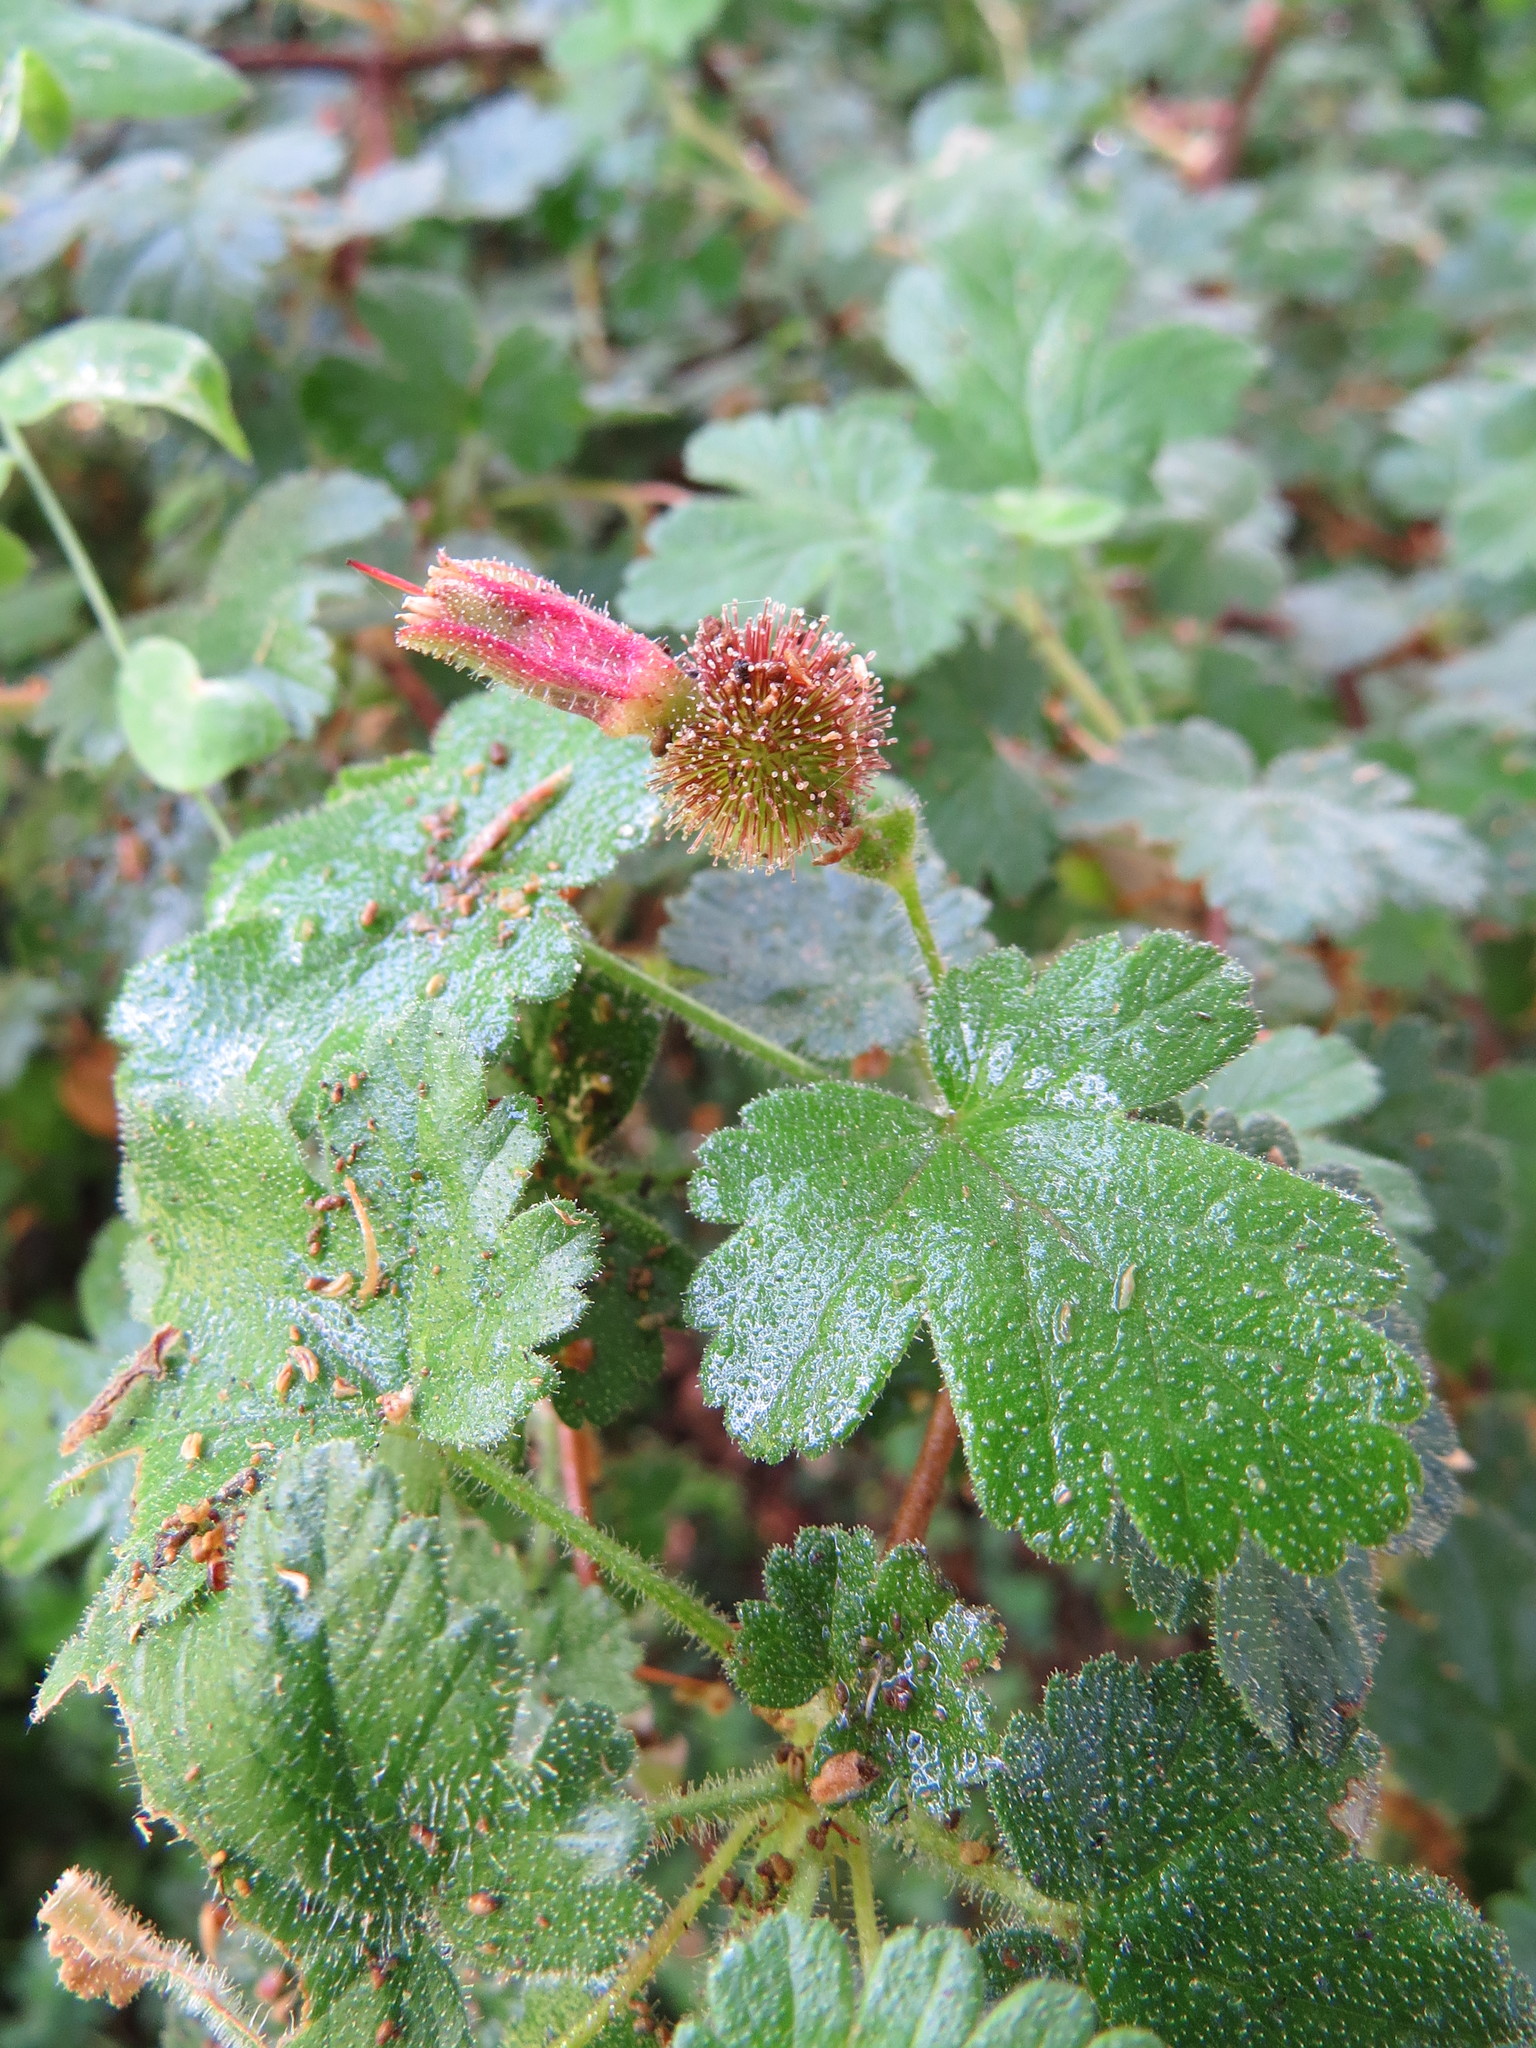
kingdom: Plantae
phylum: Tracheophyta
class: Magnoliopsida
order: Saxifragales
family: Grossulariaceae
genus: Ribes
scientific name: Ribes menziesii
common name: Canyon gooseberry
